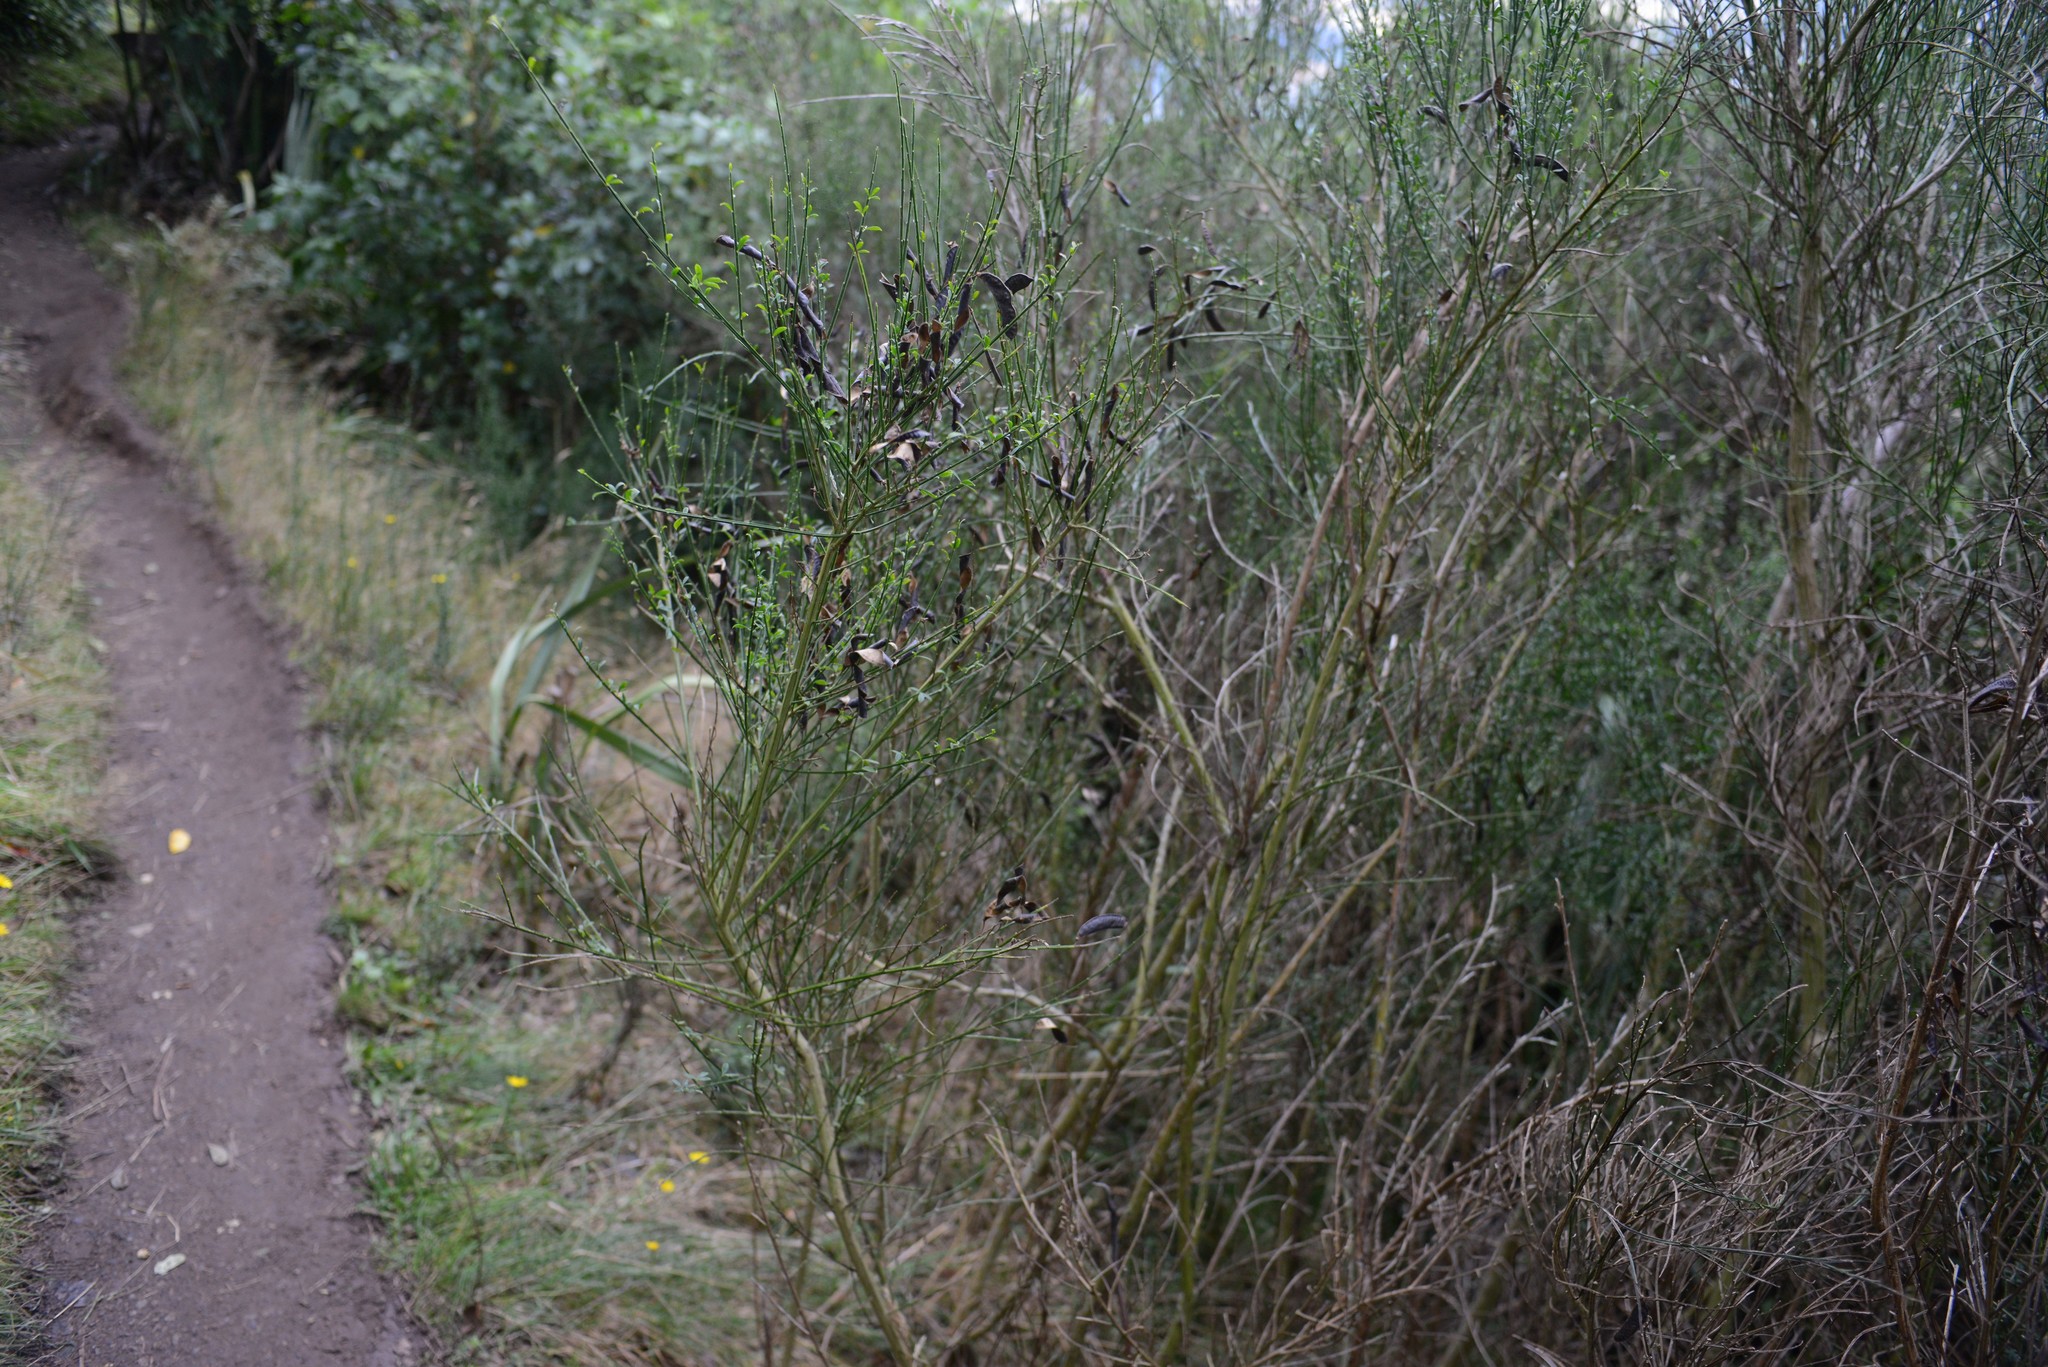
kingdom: Plantae
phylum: Tracheophyta
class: Magnoliopsida
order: Fabales
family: Fabaceae
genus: Cytisus
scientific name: Cytisus scoparius
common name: Scotch broom
